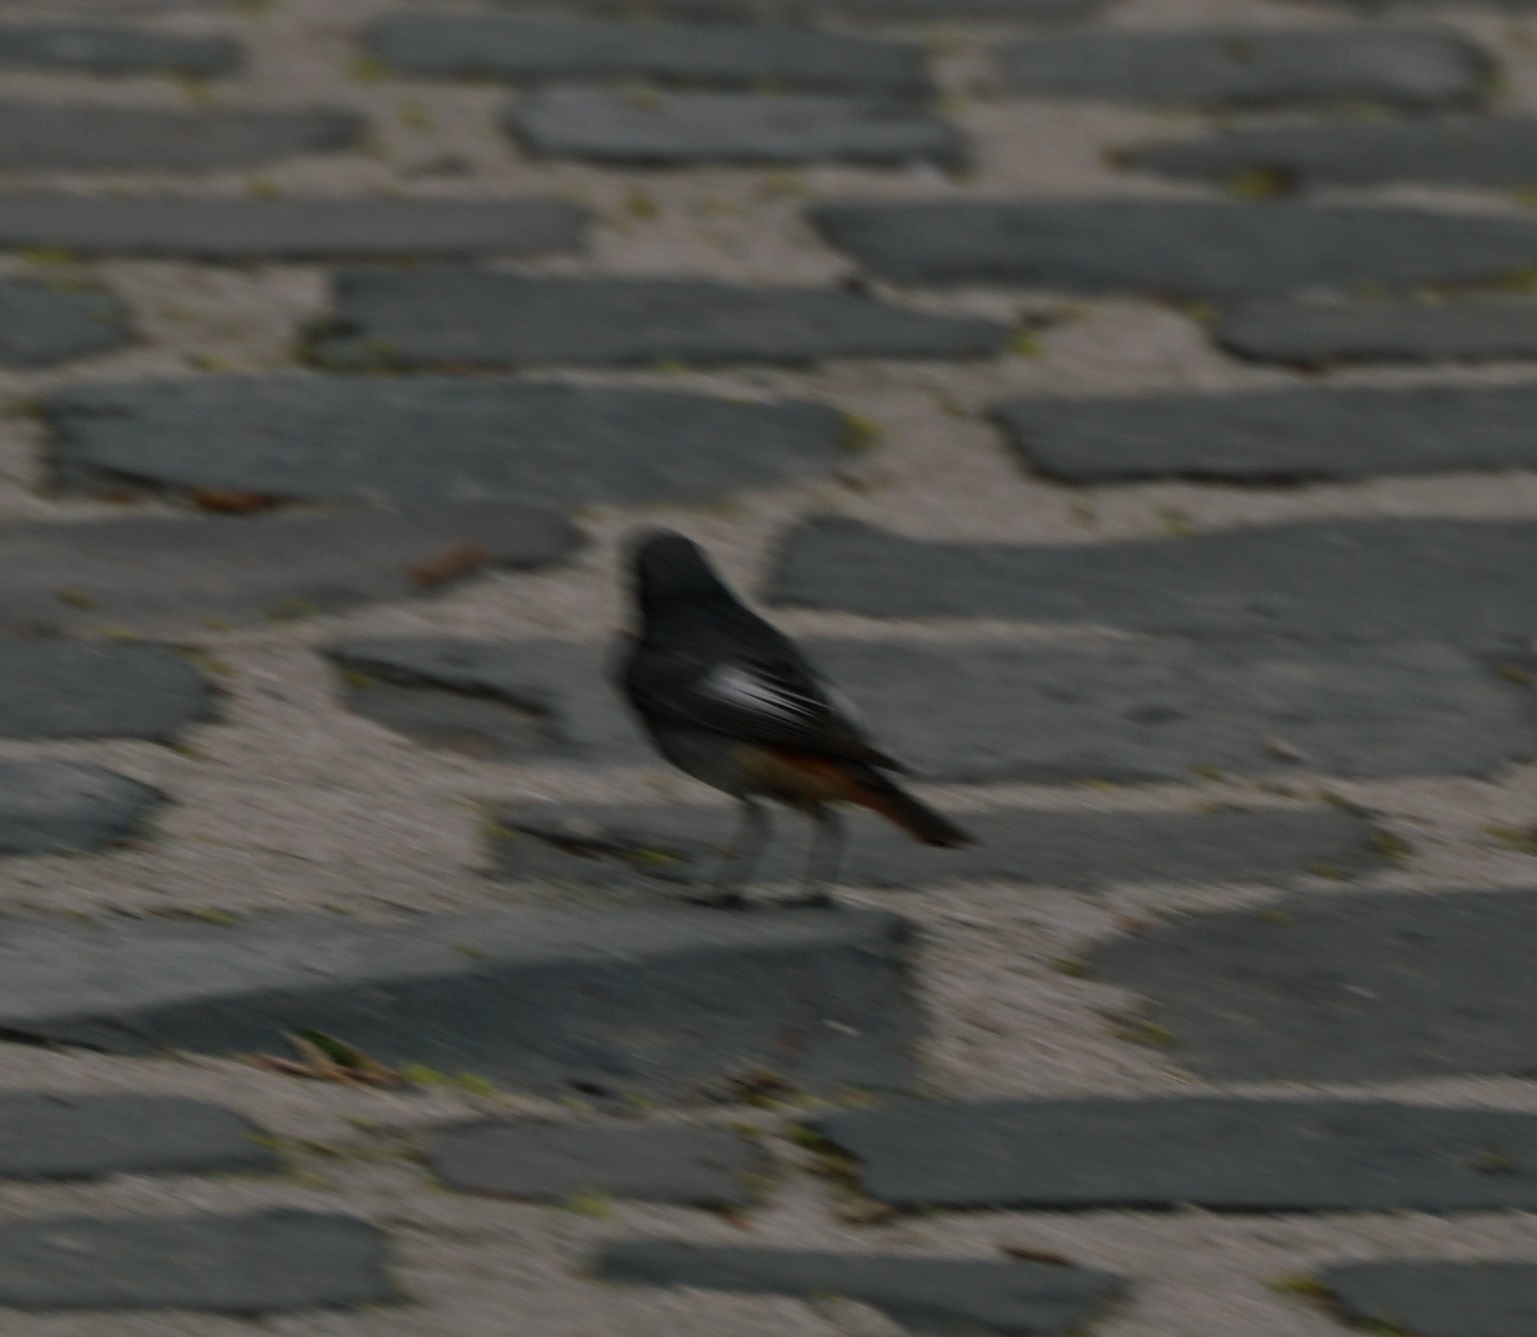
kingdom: Animalia
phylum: Chordata
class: Aves
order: Passeriformes
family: Muscicapidae
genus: Phoenicurus
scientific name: Phoenicurus ochruros
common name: Black redstart
